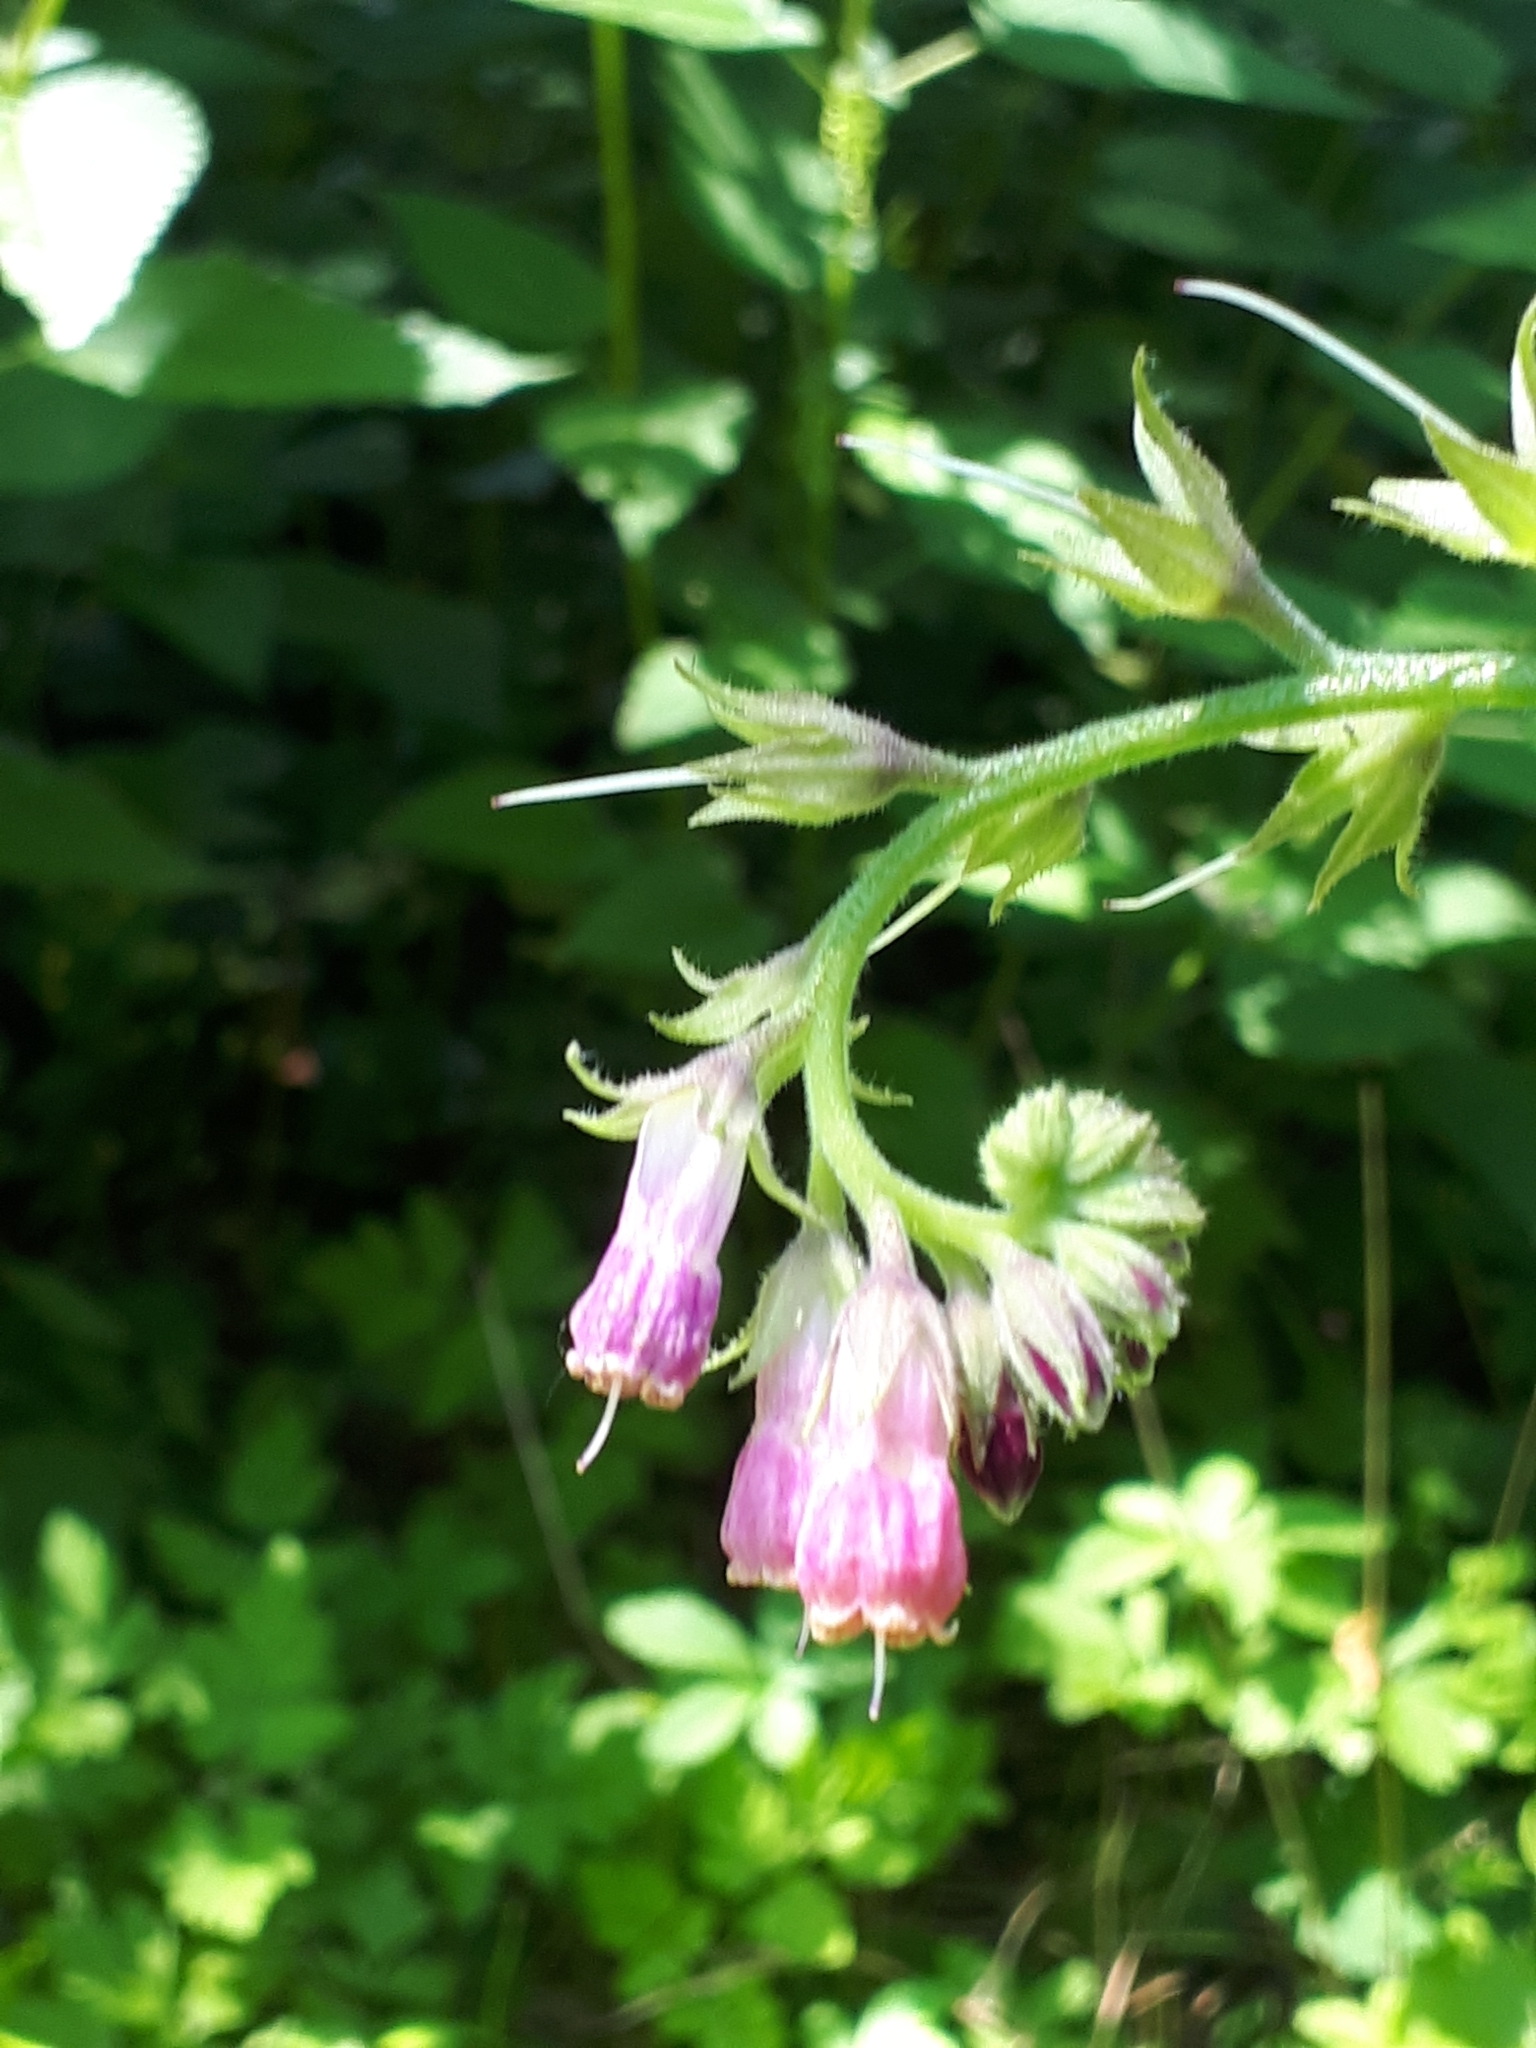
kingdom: Plantae
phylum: Tracheophyta
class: Magnoliopsida
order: Boraginales
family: Boraginaceae
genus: Symphytum
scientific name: Symphytum officinale
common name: Common comfrey
